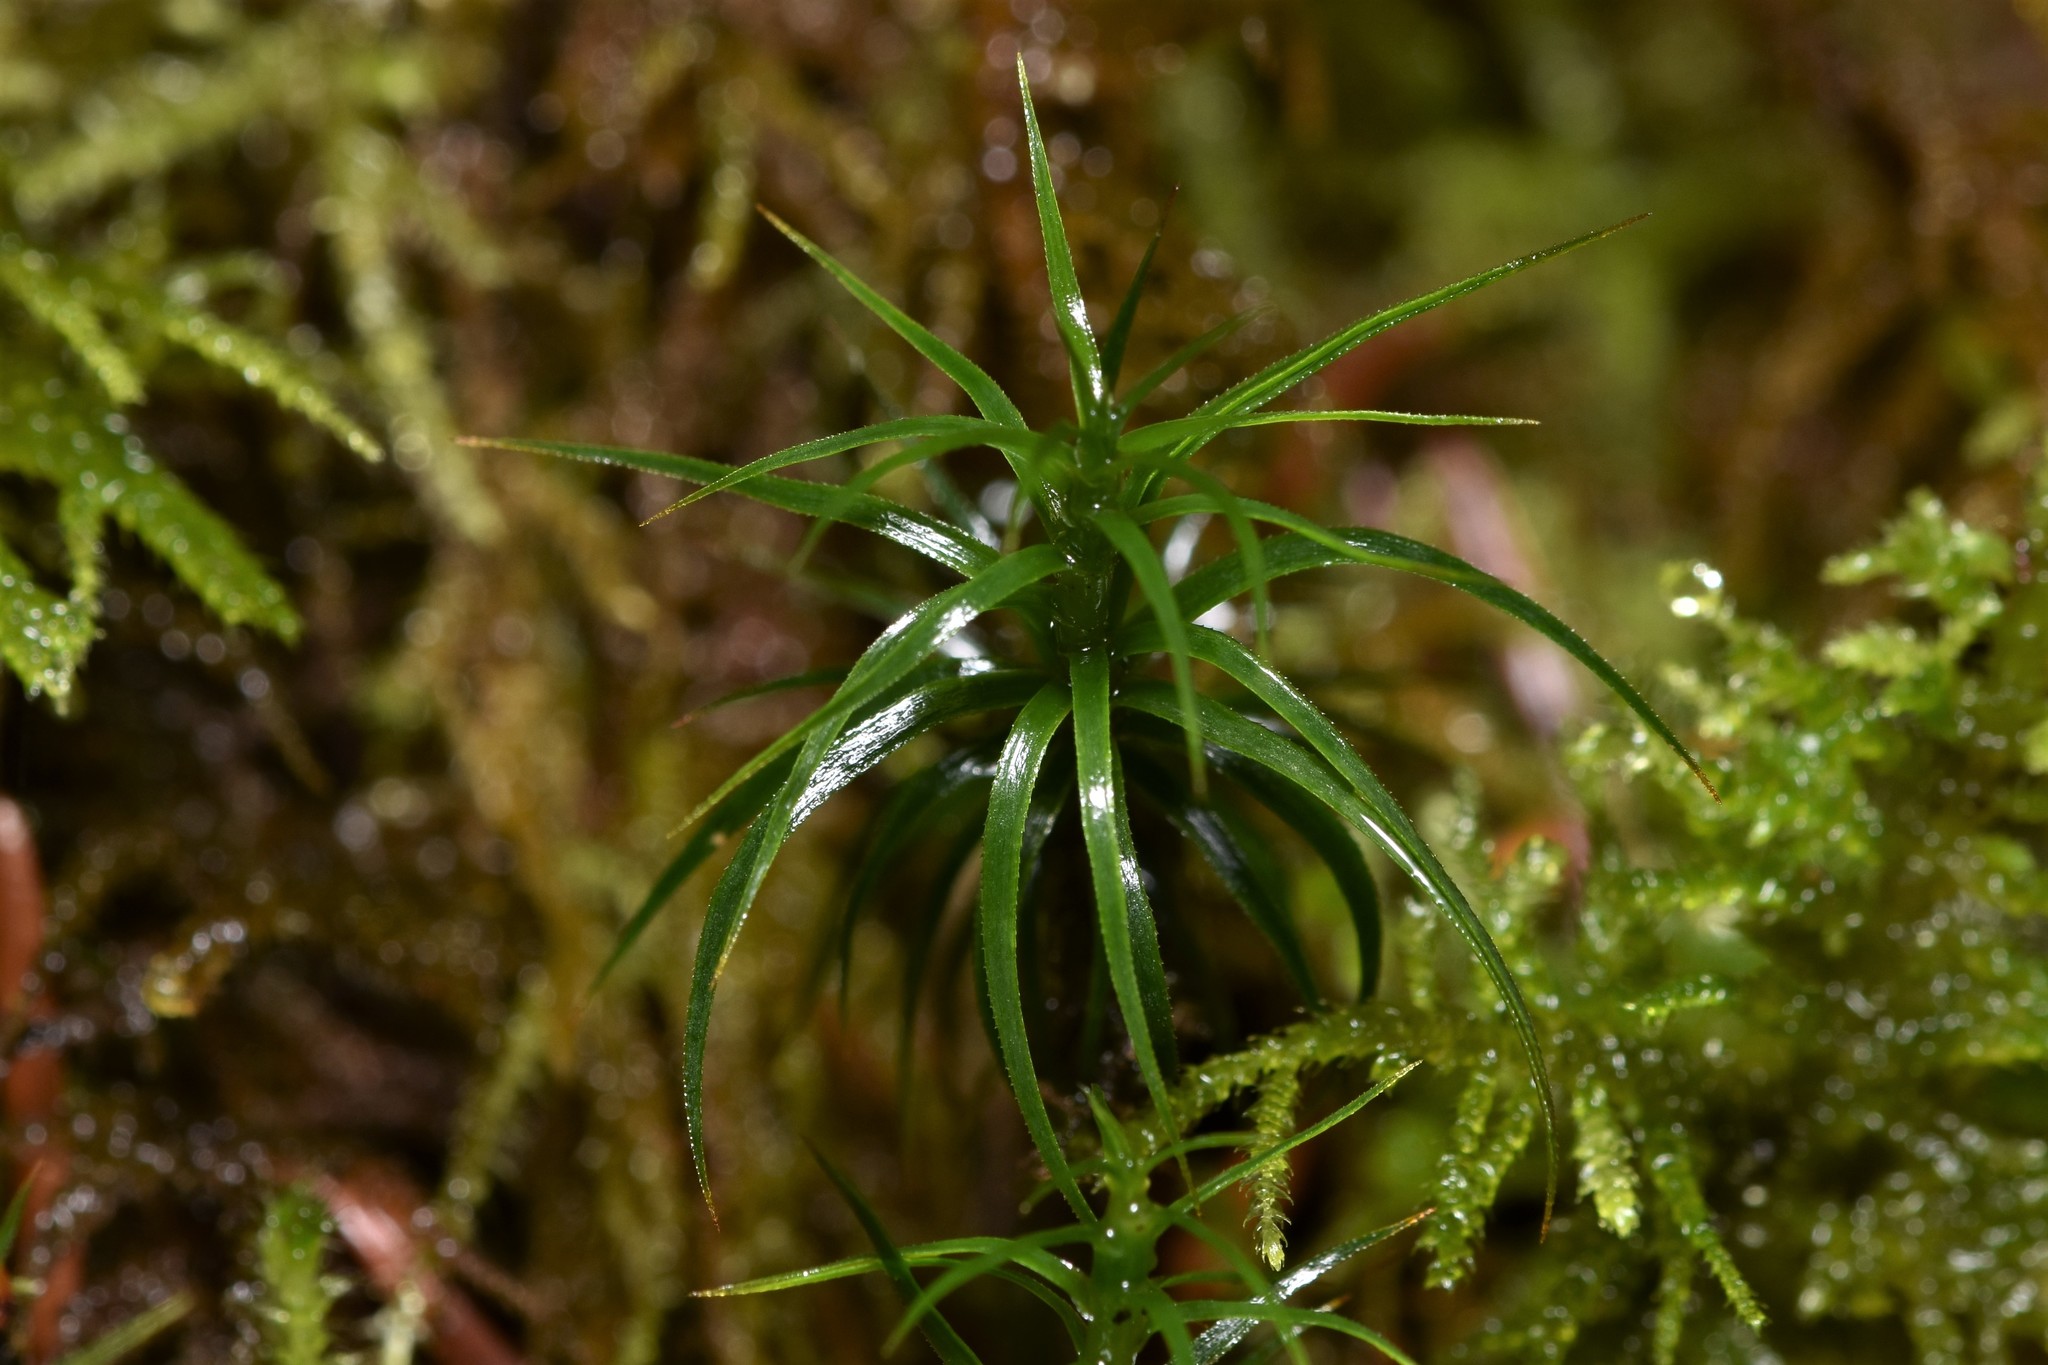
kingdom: Plantae
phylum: Bryophyta
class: Polytrichopsida
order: Polytrichales
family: Polytrichaceae
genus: Polytrichastrum
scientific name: Polytrichastrum alpinum
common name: Alpine haircap
